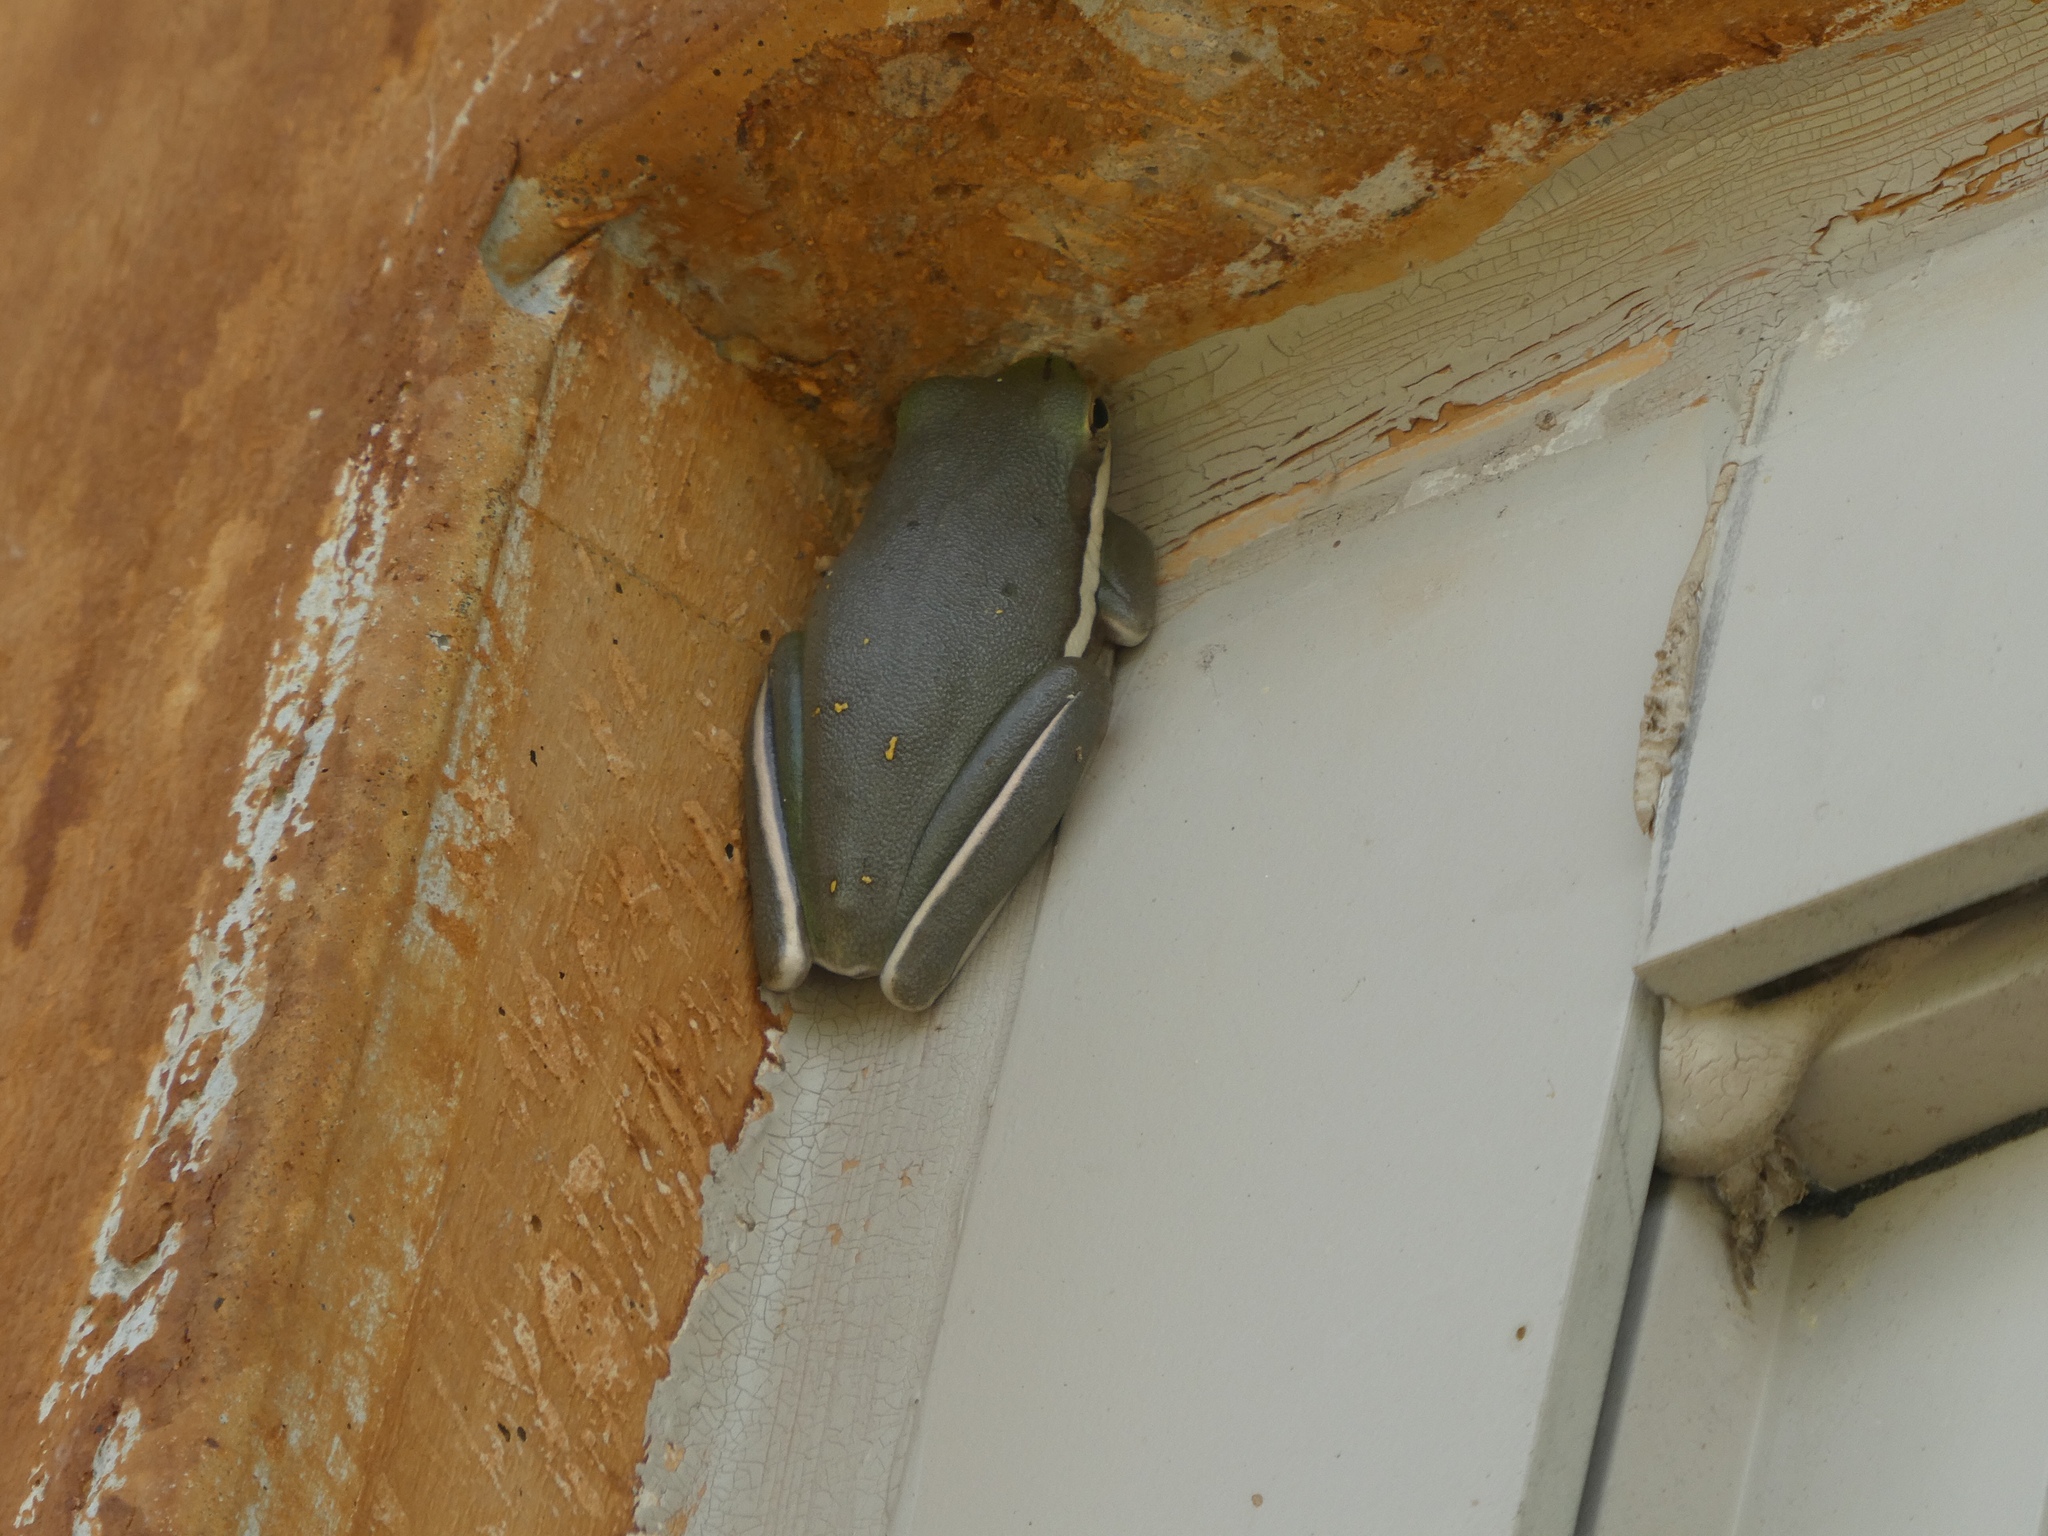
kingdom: Animalia
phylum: Chordata
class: Amphibia
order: Anura
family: Hylidae
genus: Dryophytes
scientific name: Dryophytes cinereus
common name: Green treefrog
